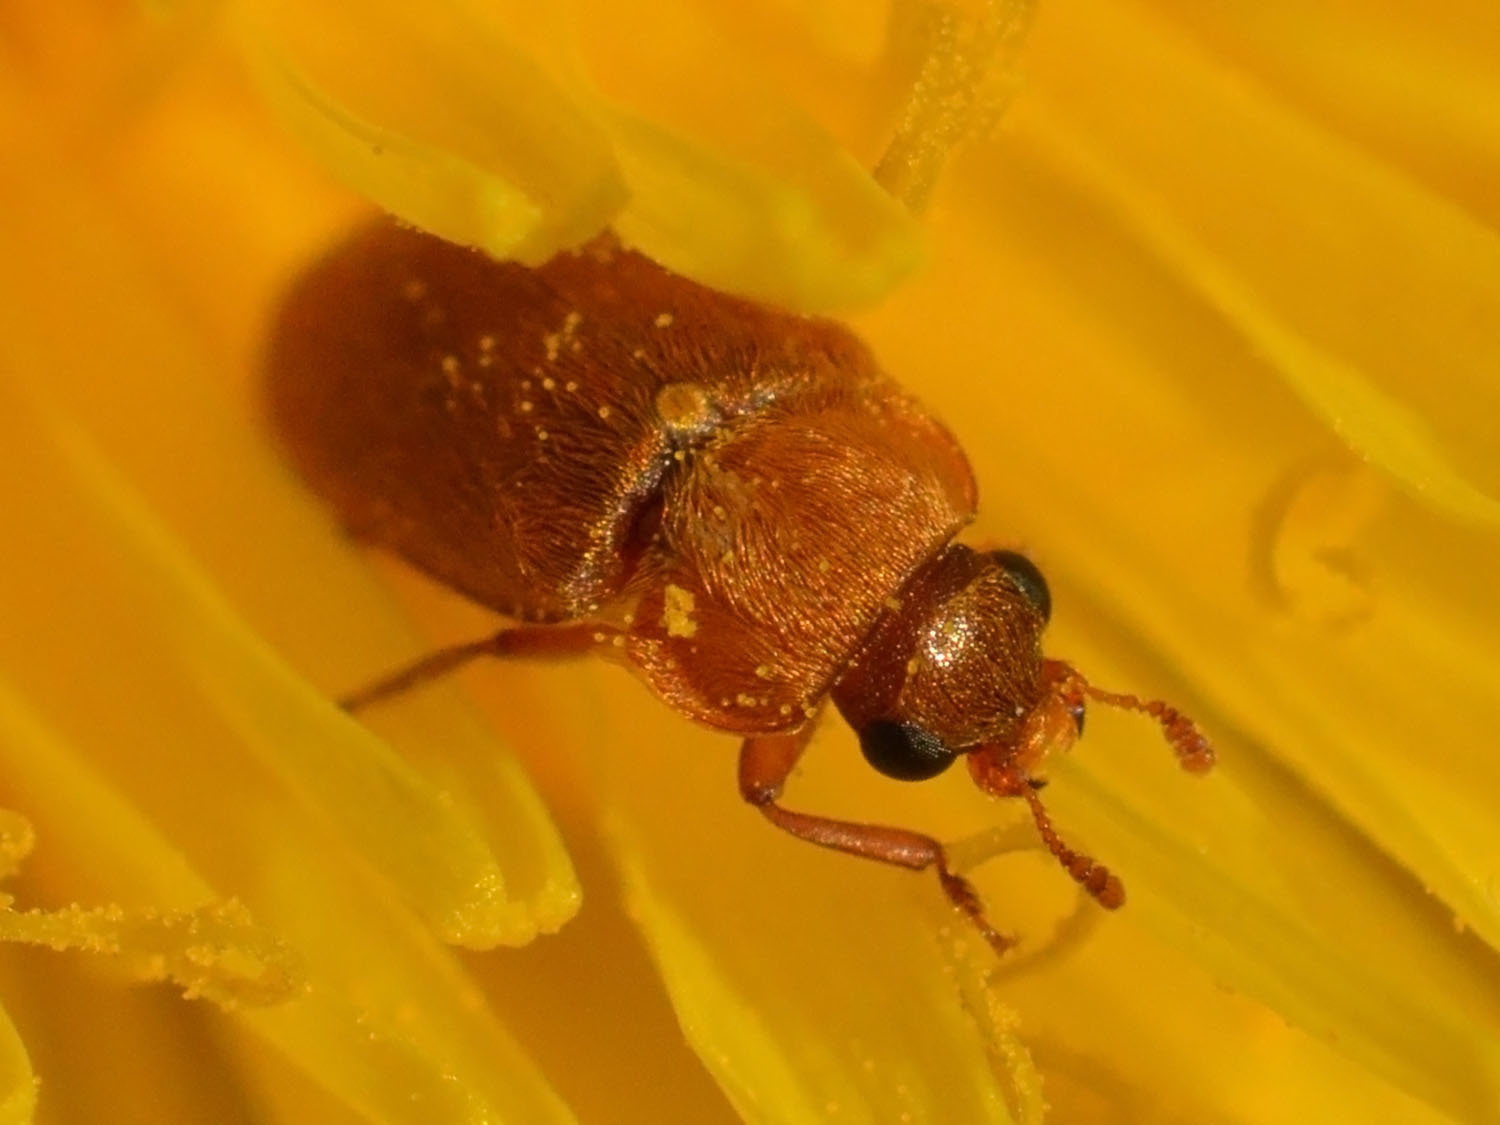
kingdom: Animalia
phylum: Arthropoda
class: Insecta
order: Coleoptera
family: Byturidae
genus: Byturus
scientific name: Byturus ochraceus
